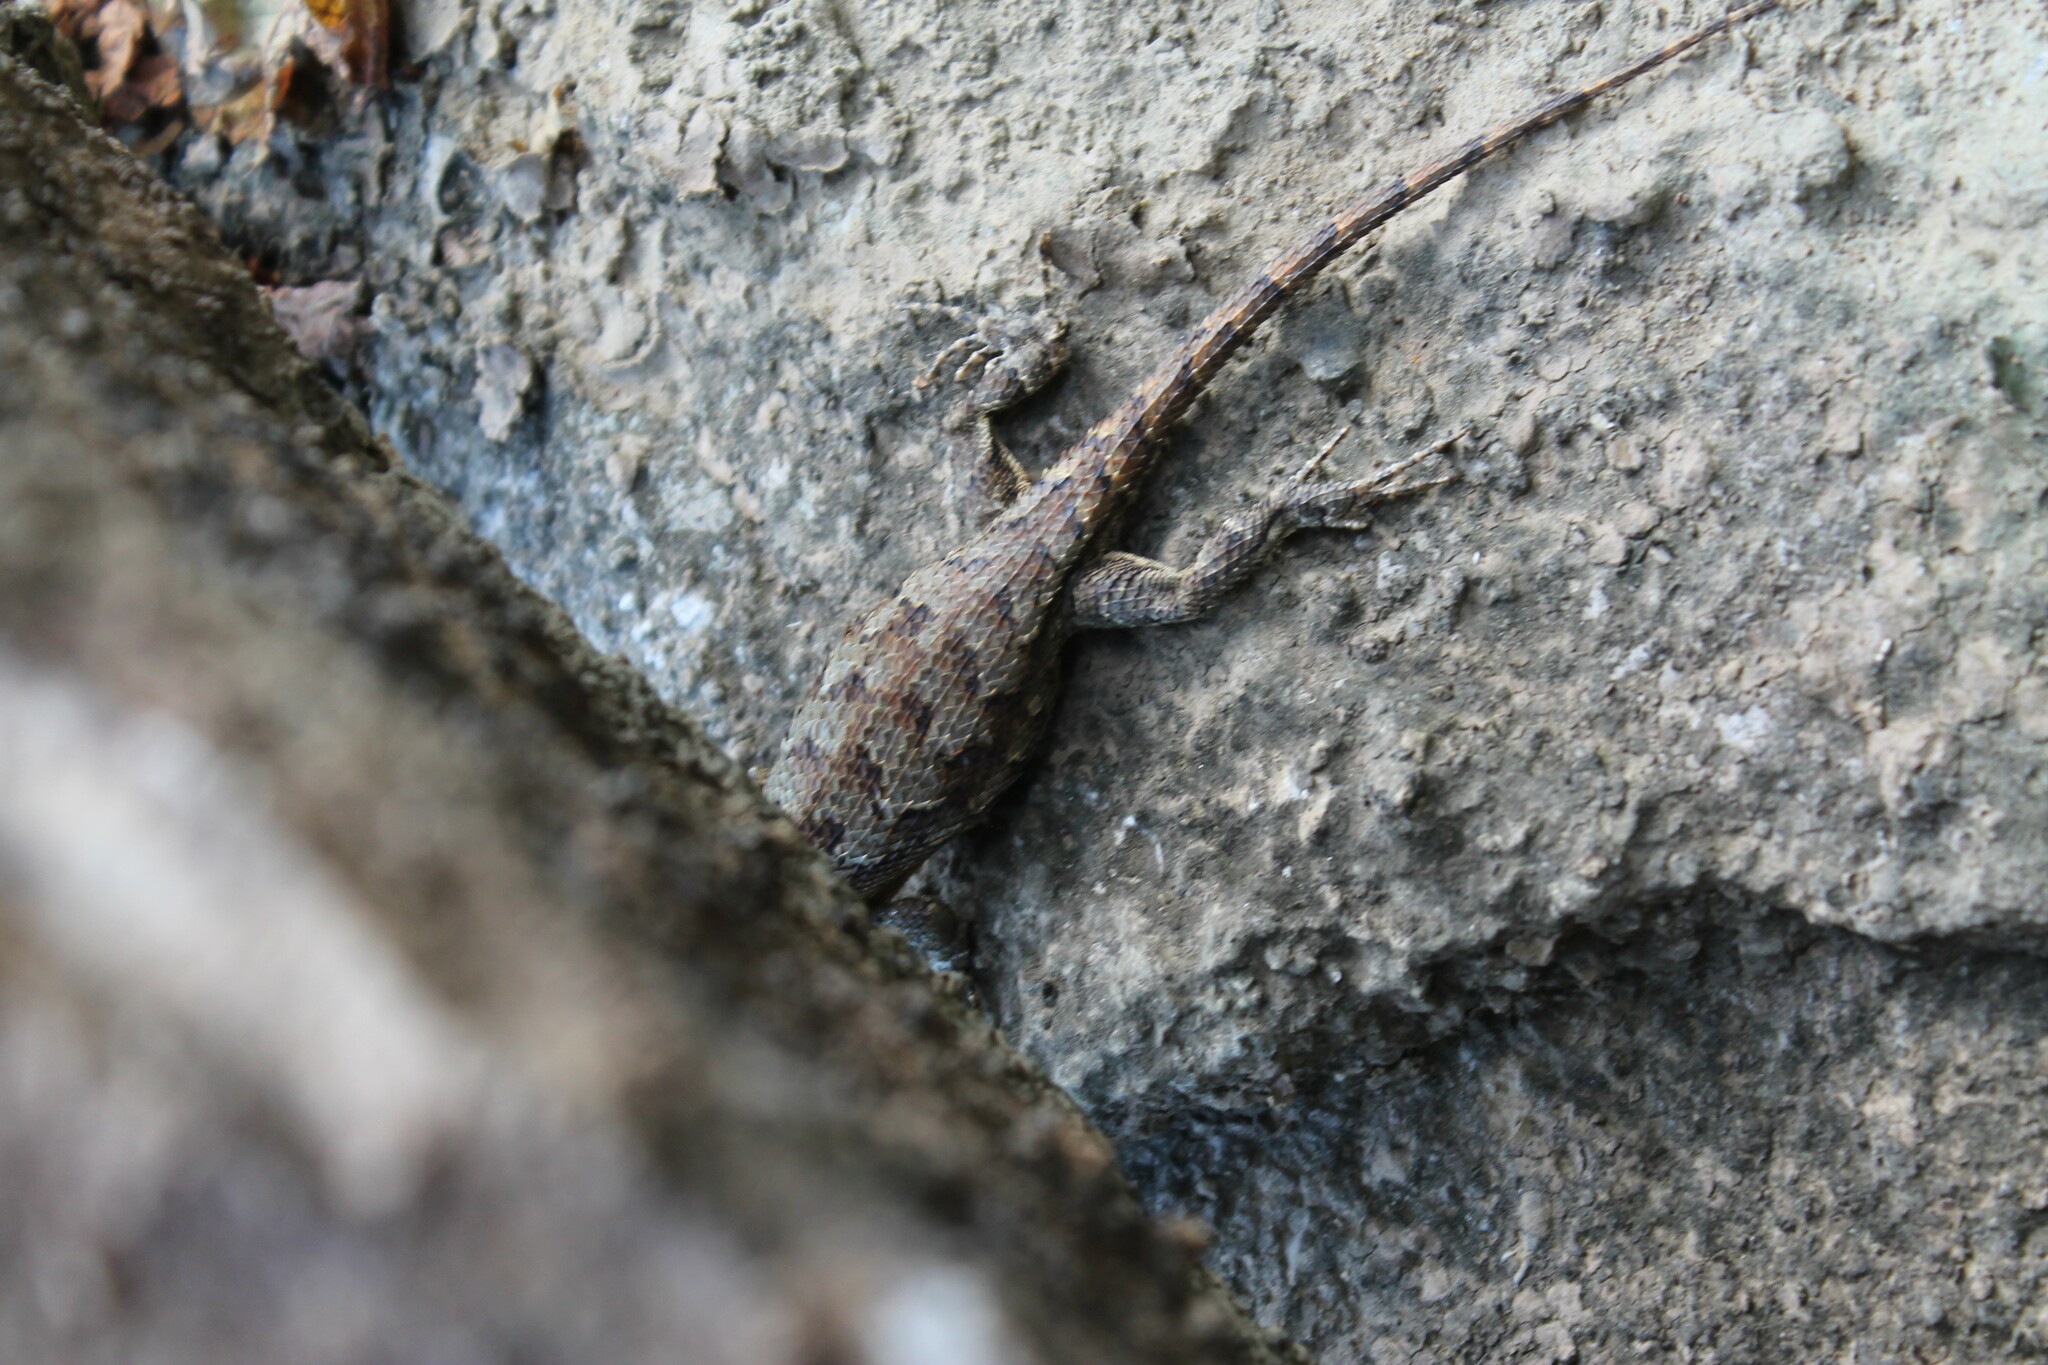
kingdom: Animalia
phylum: Chordata
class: Squamata
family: Phrynosomatidae
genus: Sceloporus
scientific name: Sceloporus undulatus
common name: Eastern fence lizard
